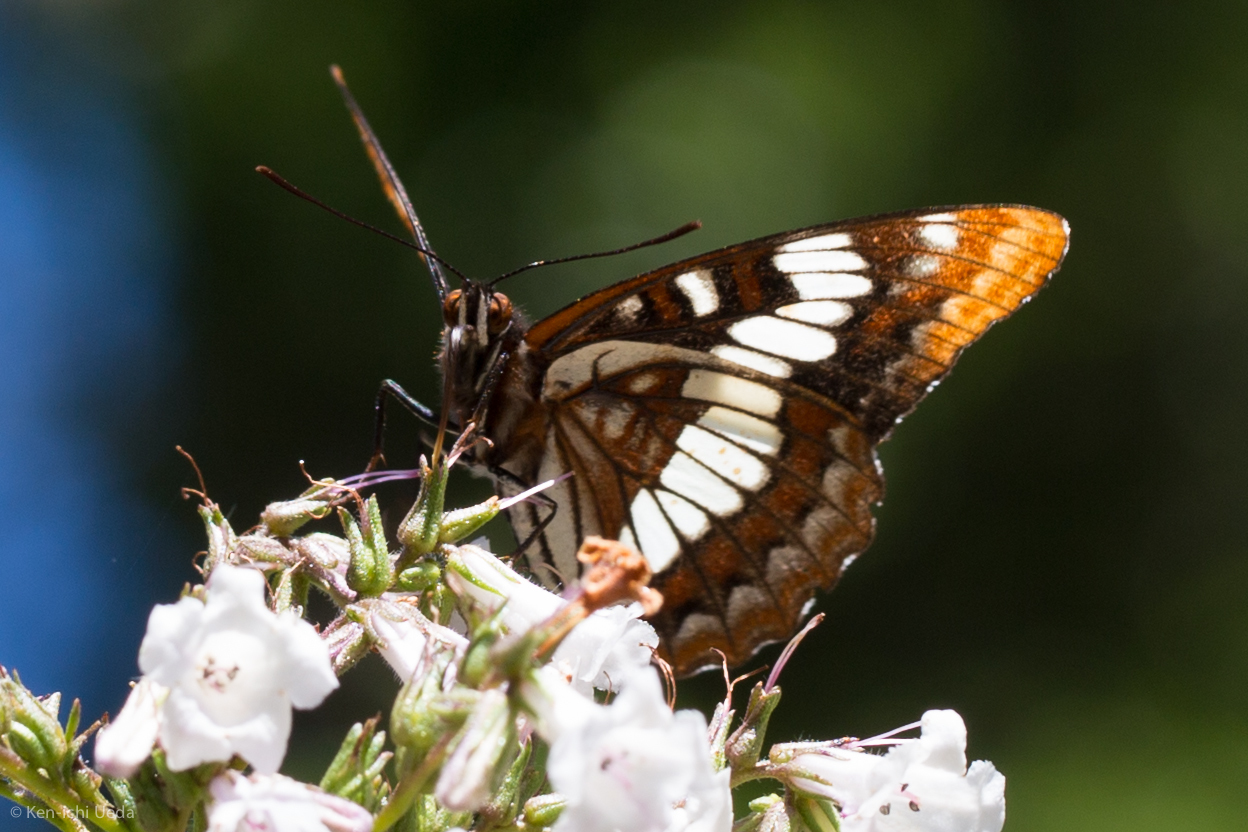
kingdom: Animalia
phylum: Arthropoda
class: Insecta
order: Lepidoptera
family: Nymphalidae
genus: Limenitis
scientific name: Limenitis lorquini
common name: Lorquin's admiral
